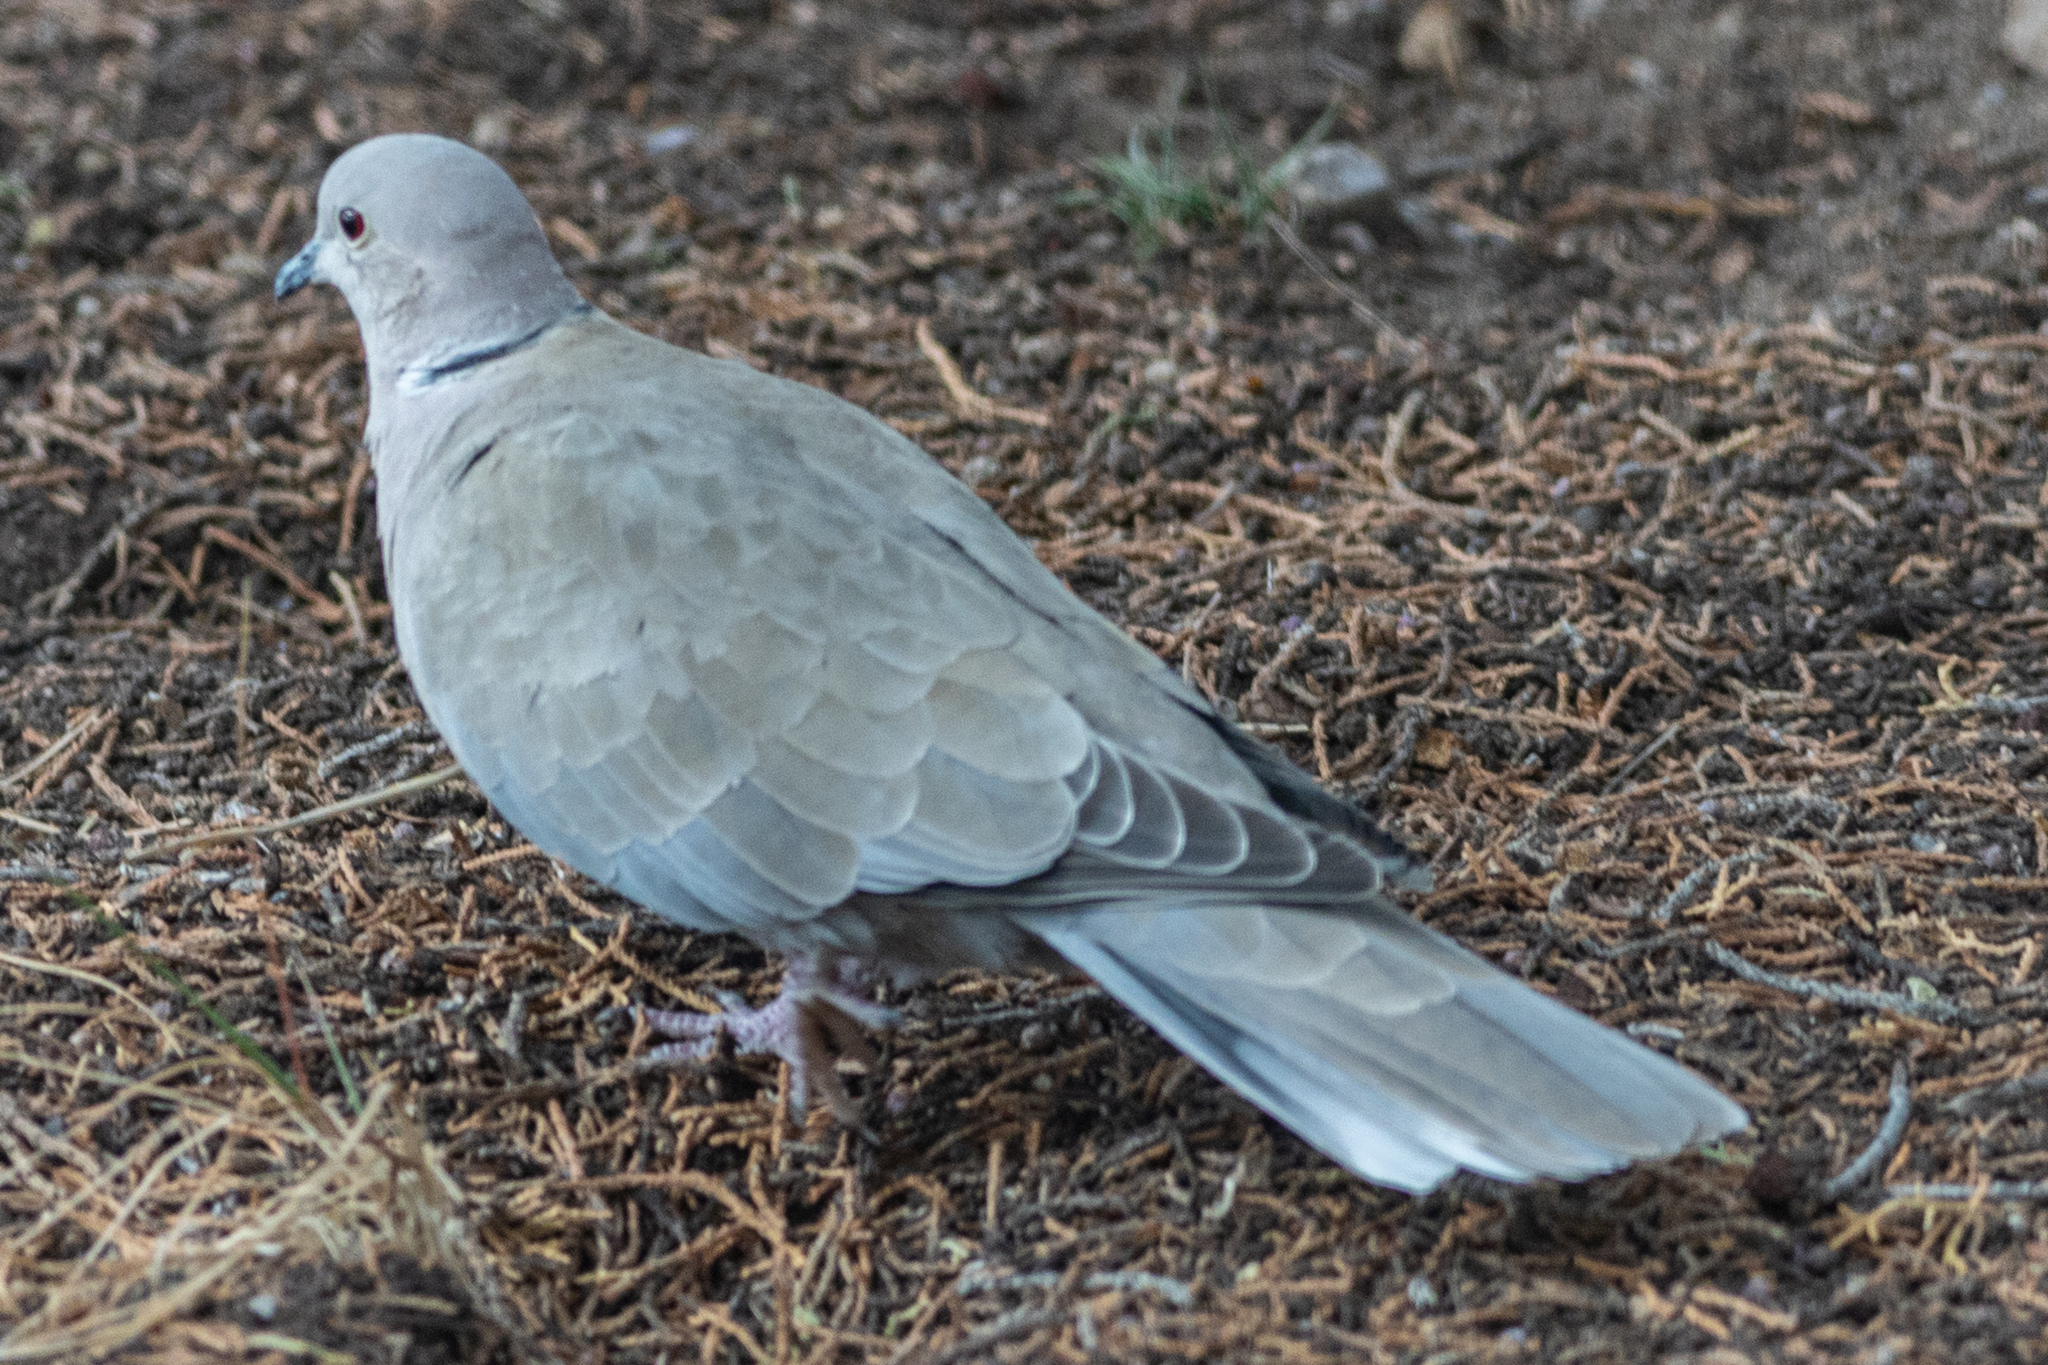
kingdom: Animalia
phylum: Chordata
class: Aves
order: Columbiformes
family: Columbidae
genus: Streptopelia
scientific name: Streptopelia decaocto
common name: Eurasian collared dove
